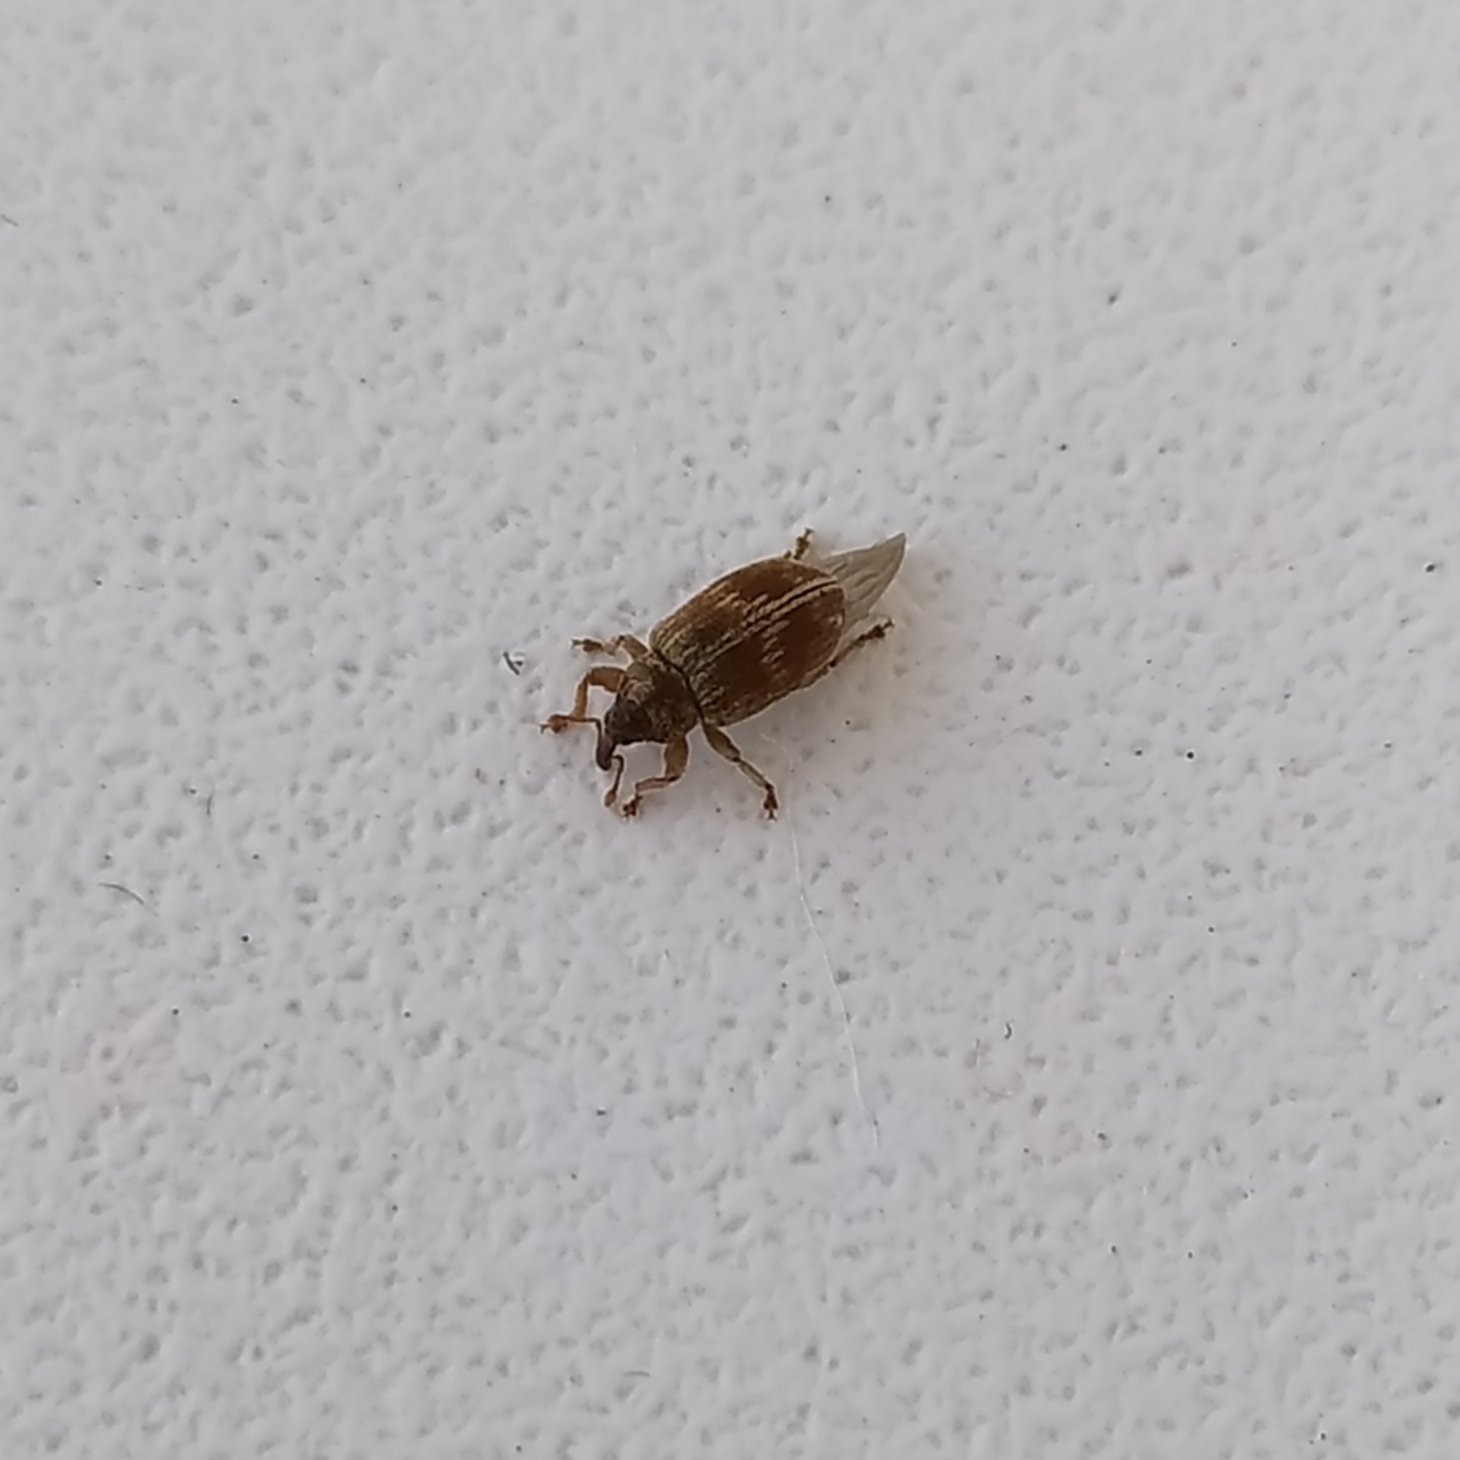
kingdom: Animalia
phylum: Arthropoda
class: Insecta
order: Coleoptera
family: Curculionidae
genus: Ellescus
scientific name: Ellescus scanicus
